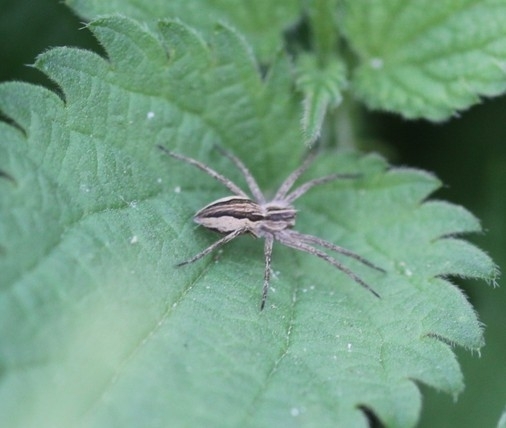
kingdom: Animalia
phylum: Arthropoda
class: Arachnida
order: Araneae
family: Pisauridae
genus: Pisaura
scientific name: Pisaura mirabilis
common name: Tent spider
